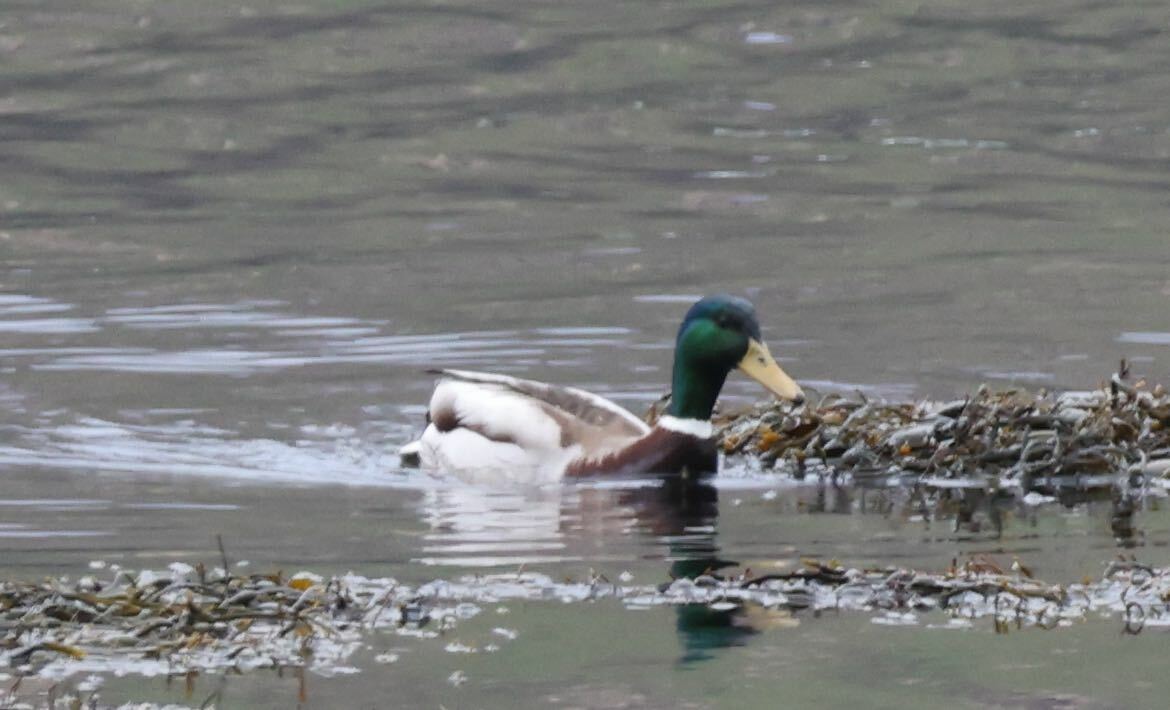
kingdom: Animalia
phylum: Chordata
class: Aves
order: Anseriformes
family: Anatidae
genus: Anas
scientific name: Anas platyrhynchos
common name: Mallard
